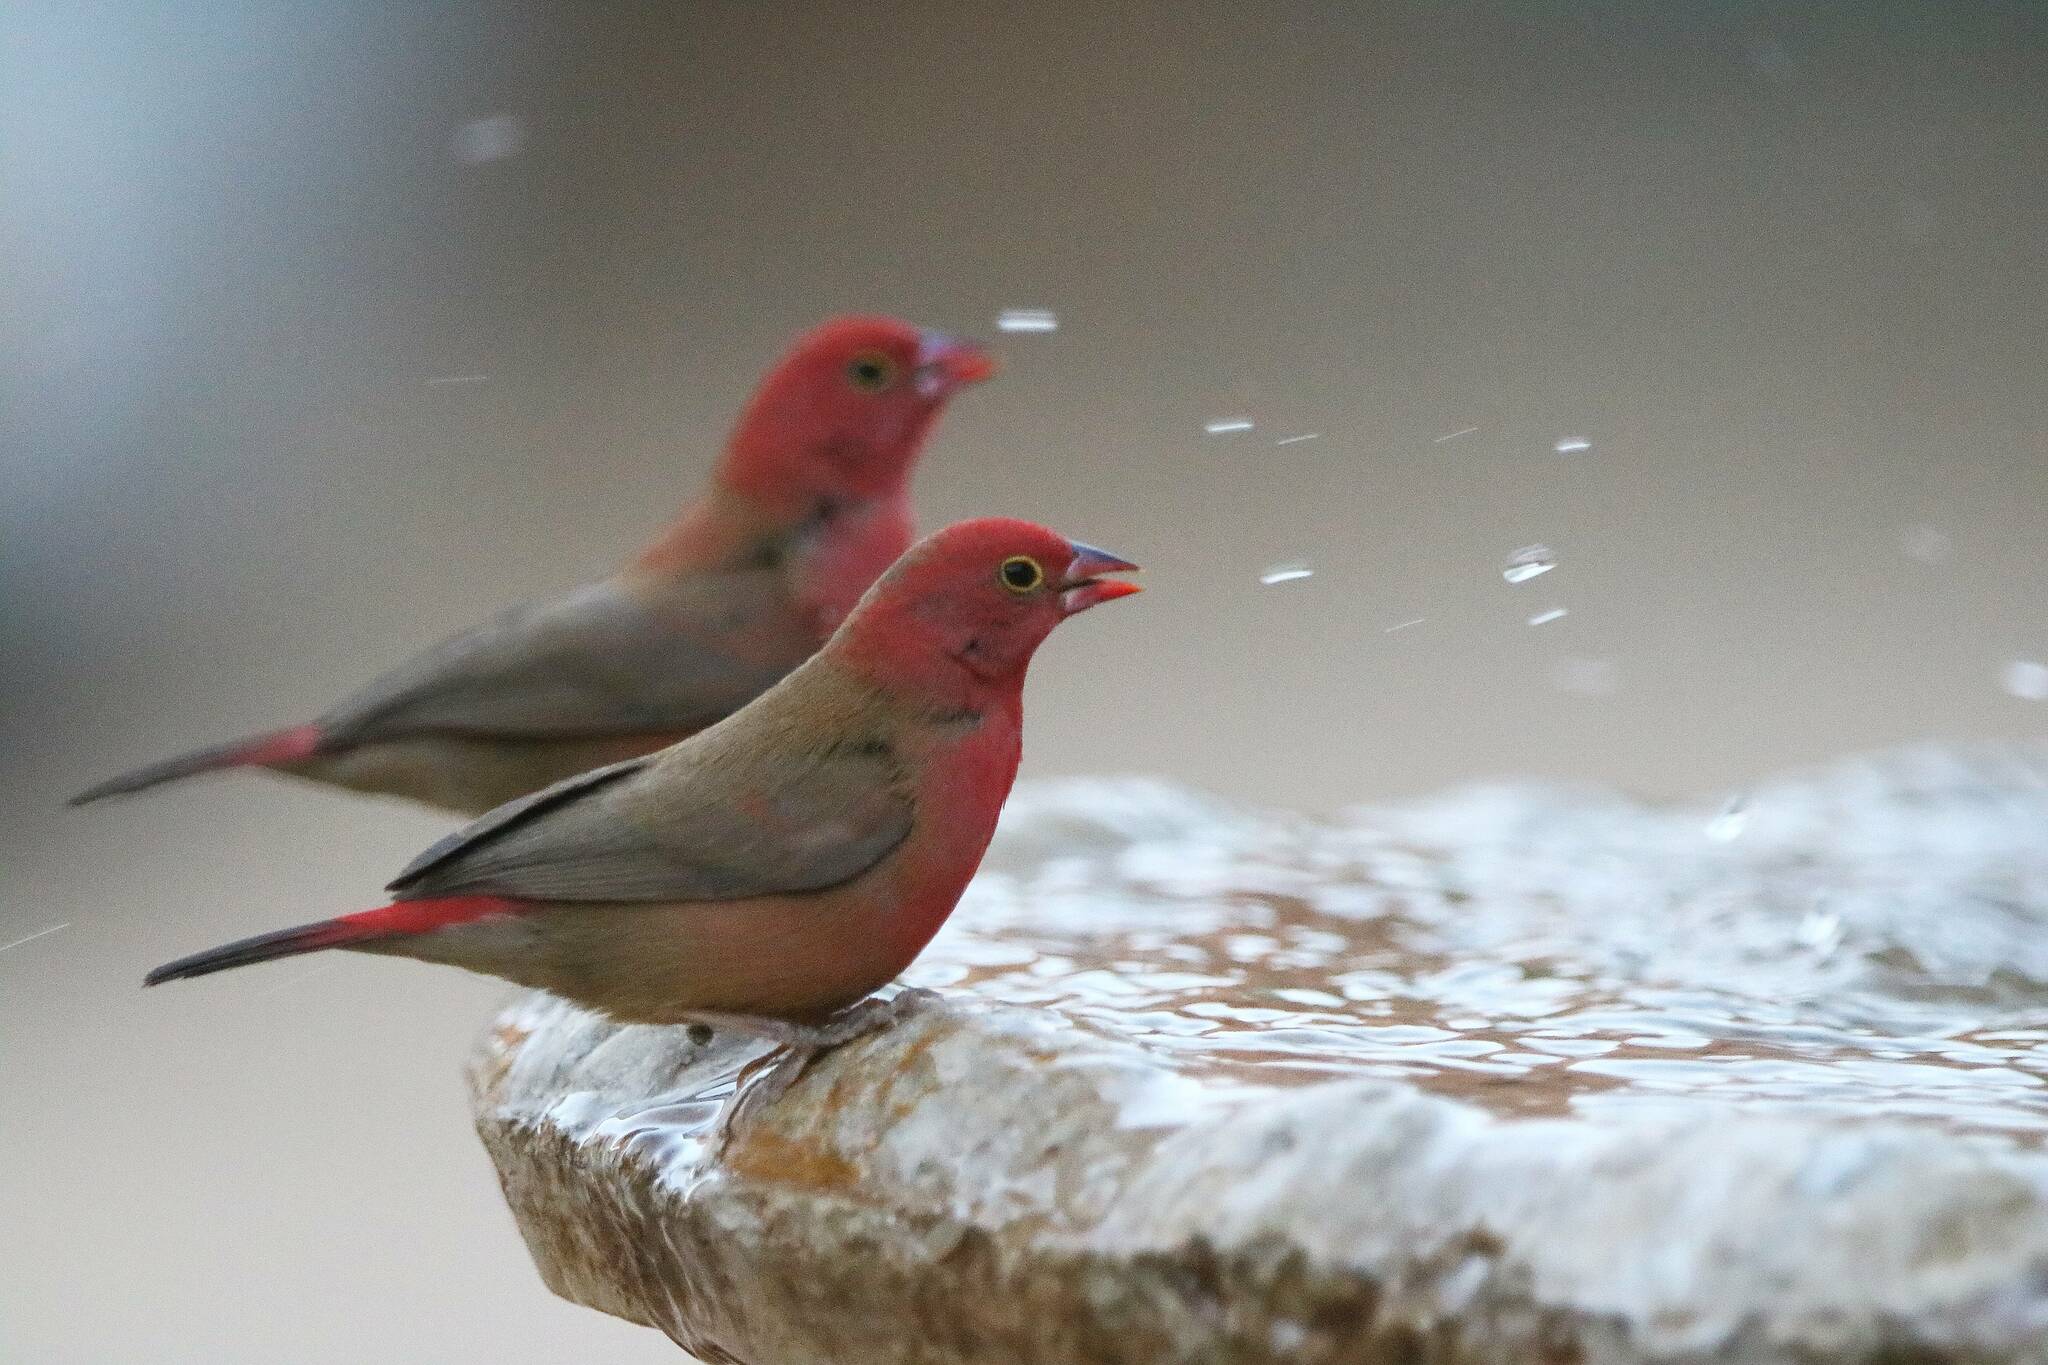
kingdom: Animalia
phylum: Chordata
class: Aves
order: Passeriformes
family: Estrildidae
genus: Lagonosticta
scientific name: Lagonosticta senegala
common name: Red-billed firefinch
